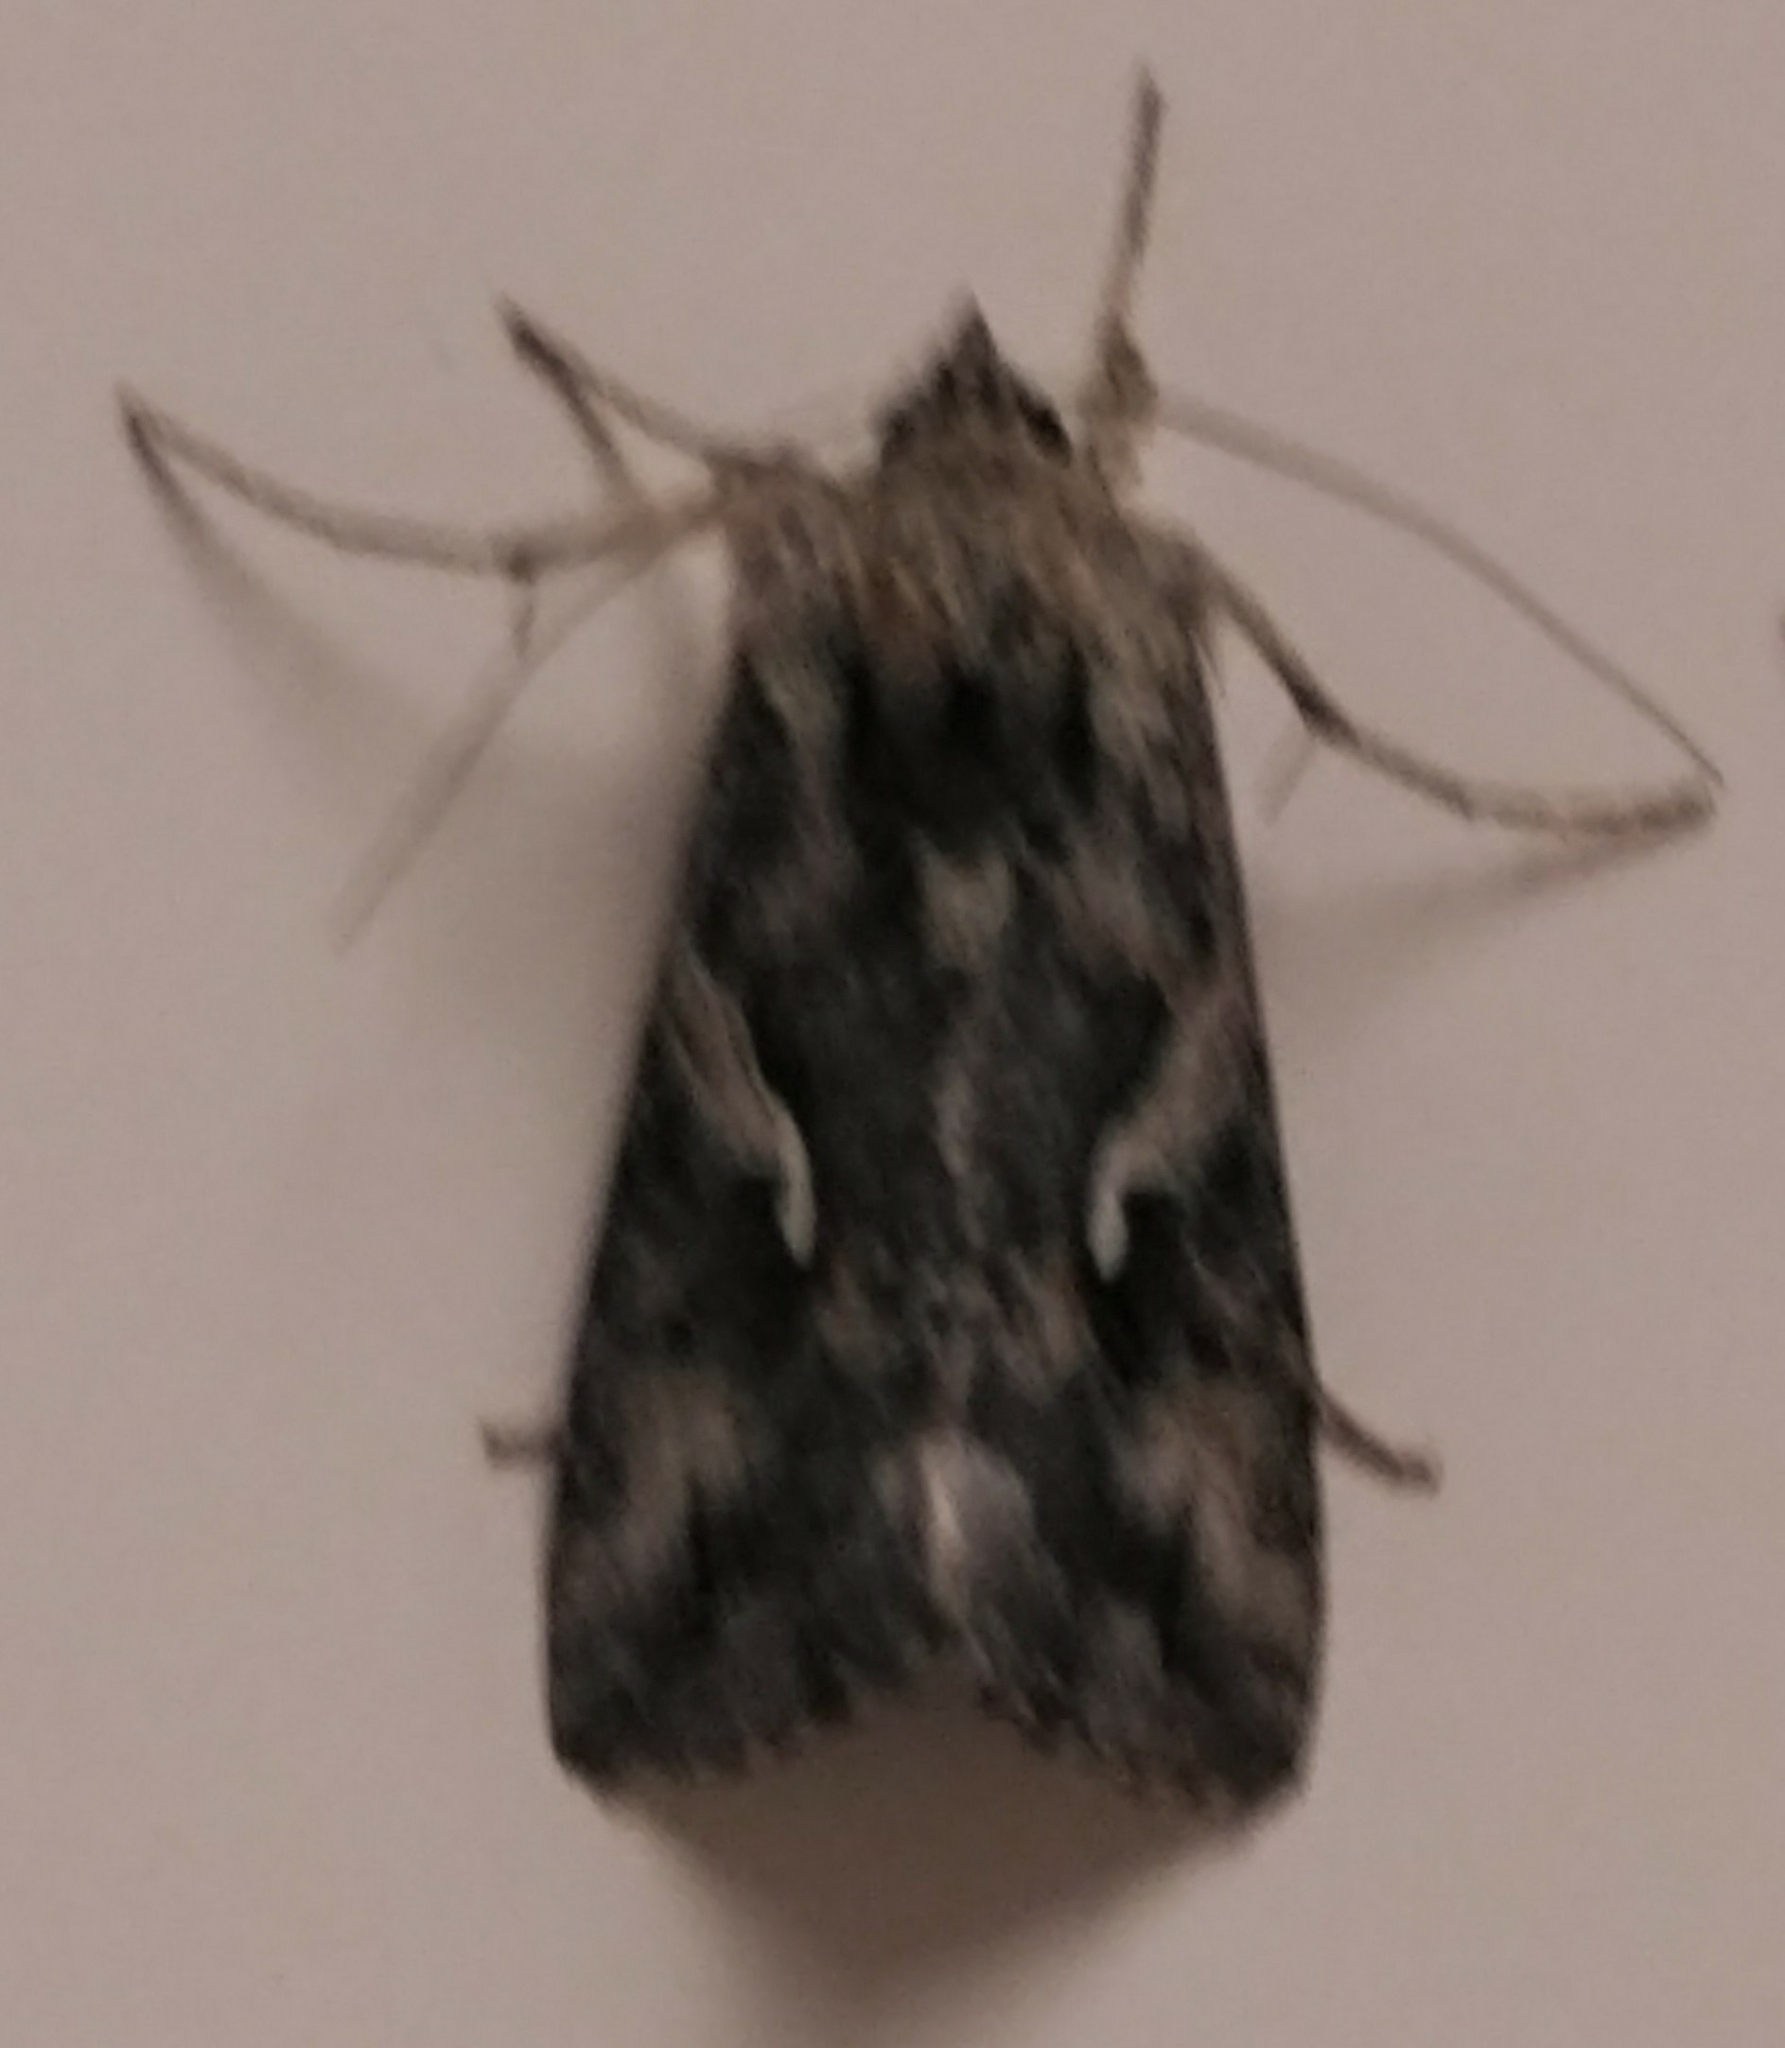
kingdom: Animalia
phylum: Arthropoda
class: Insecta
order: Lepidoptera
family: Noctuidae
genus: Autographa
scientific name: Autographa californica
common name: Alfalfa looper
